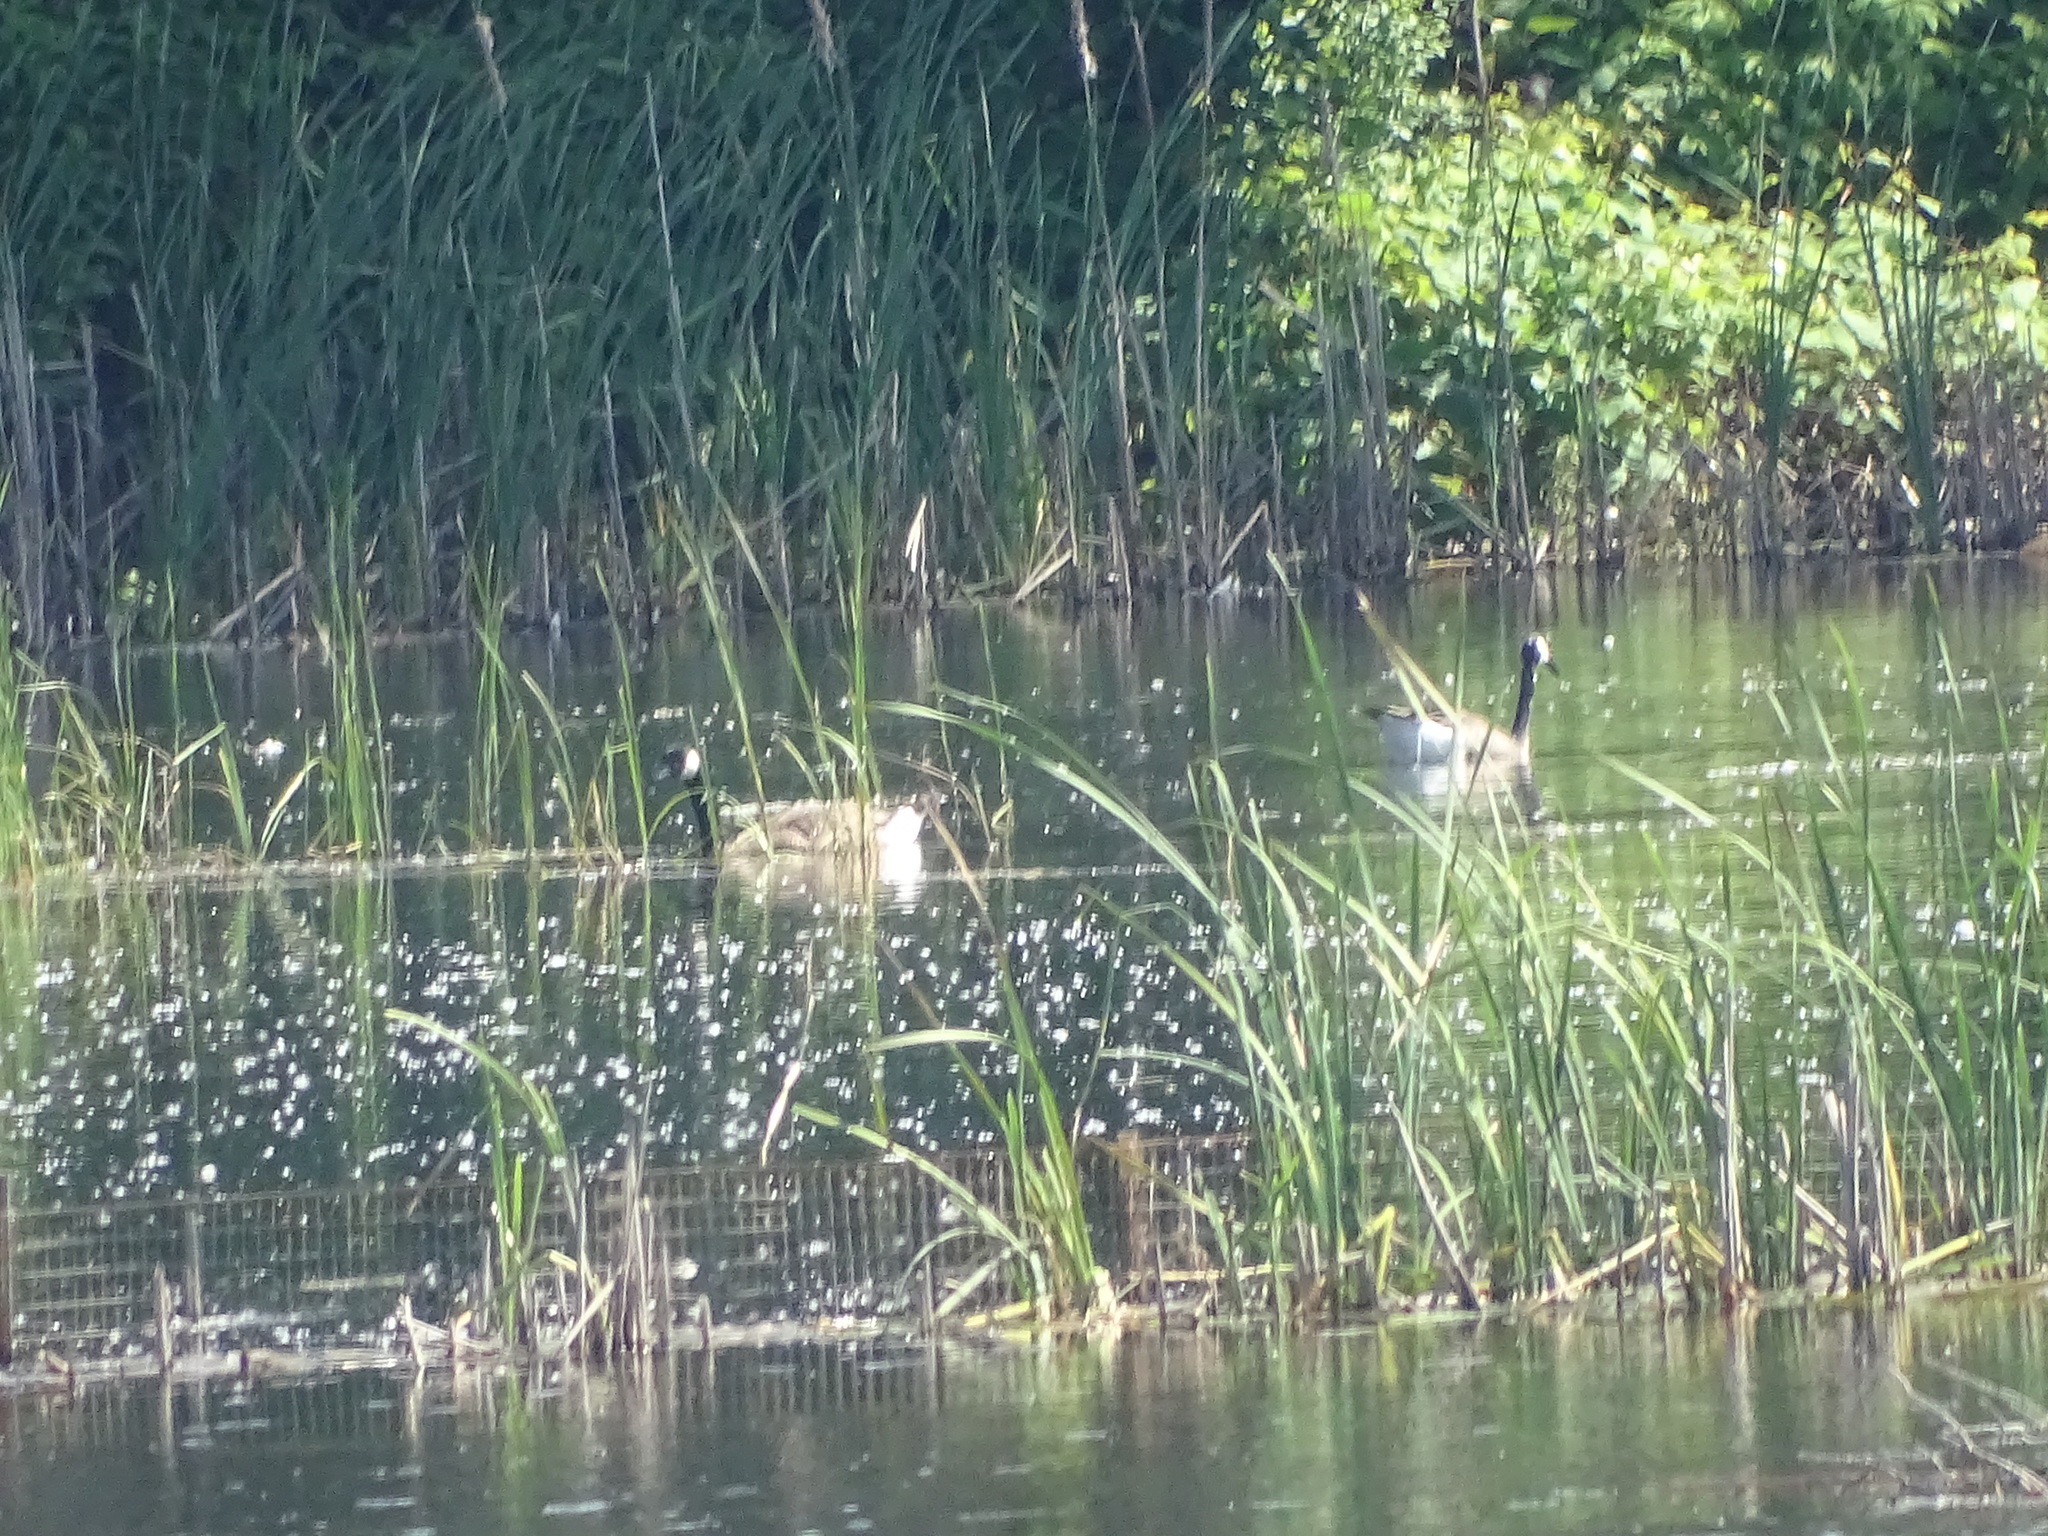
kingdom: Animalia
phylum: Chordata
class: Aves
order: Anseriformes
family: Anatidae
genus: Branta
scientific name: Branta canadensis
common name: Canada goose
